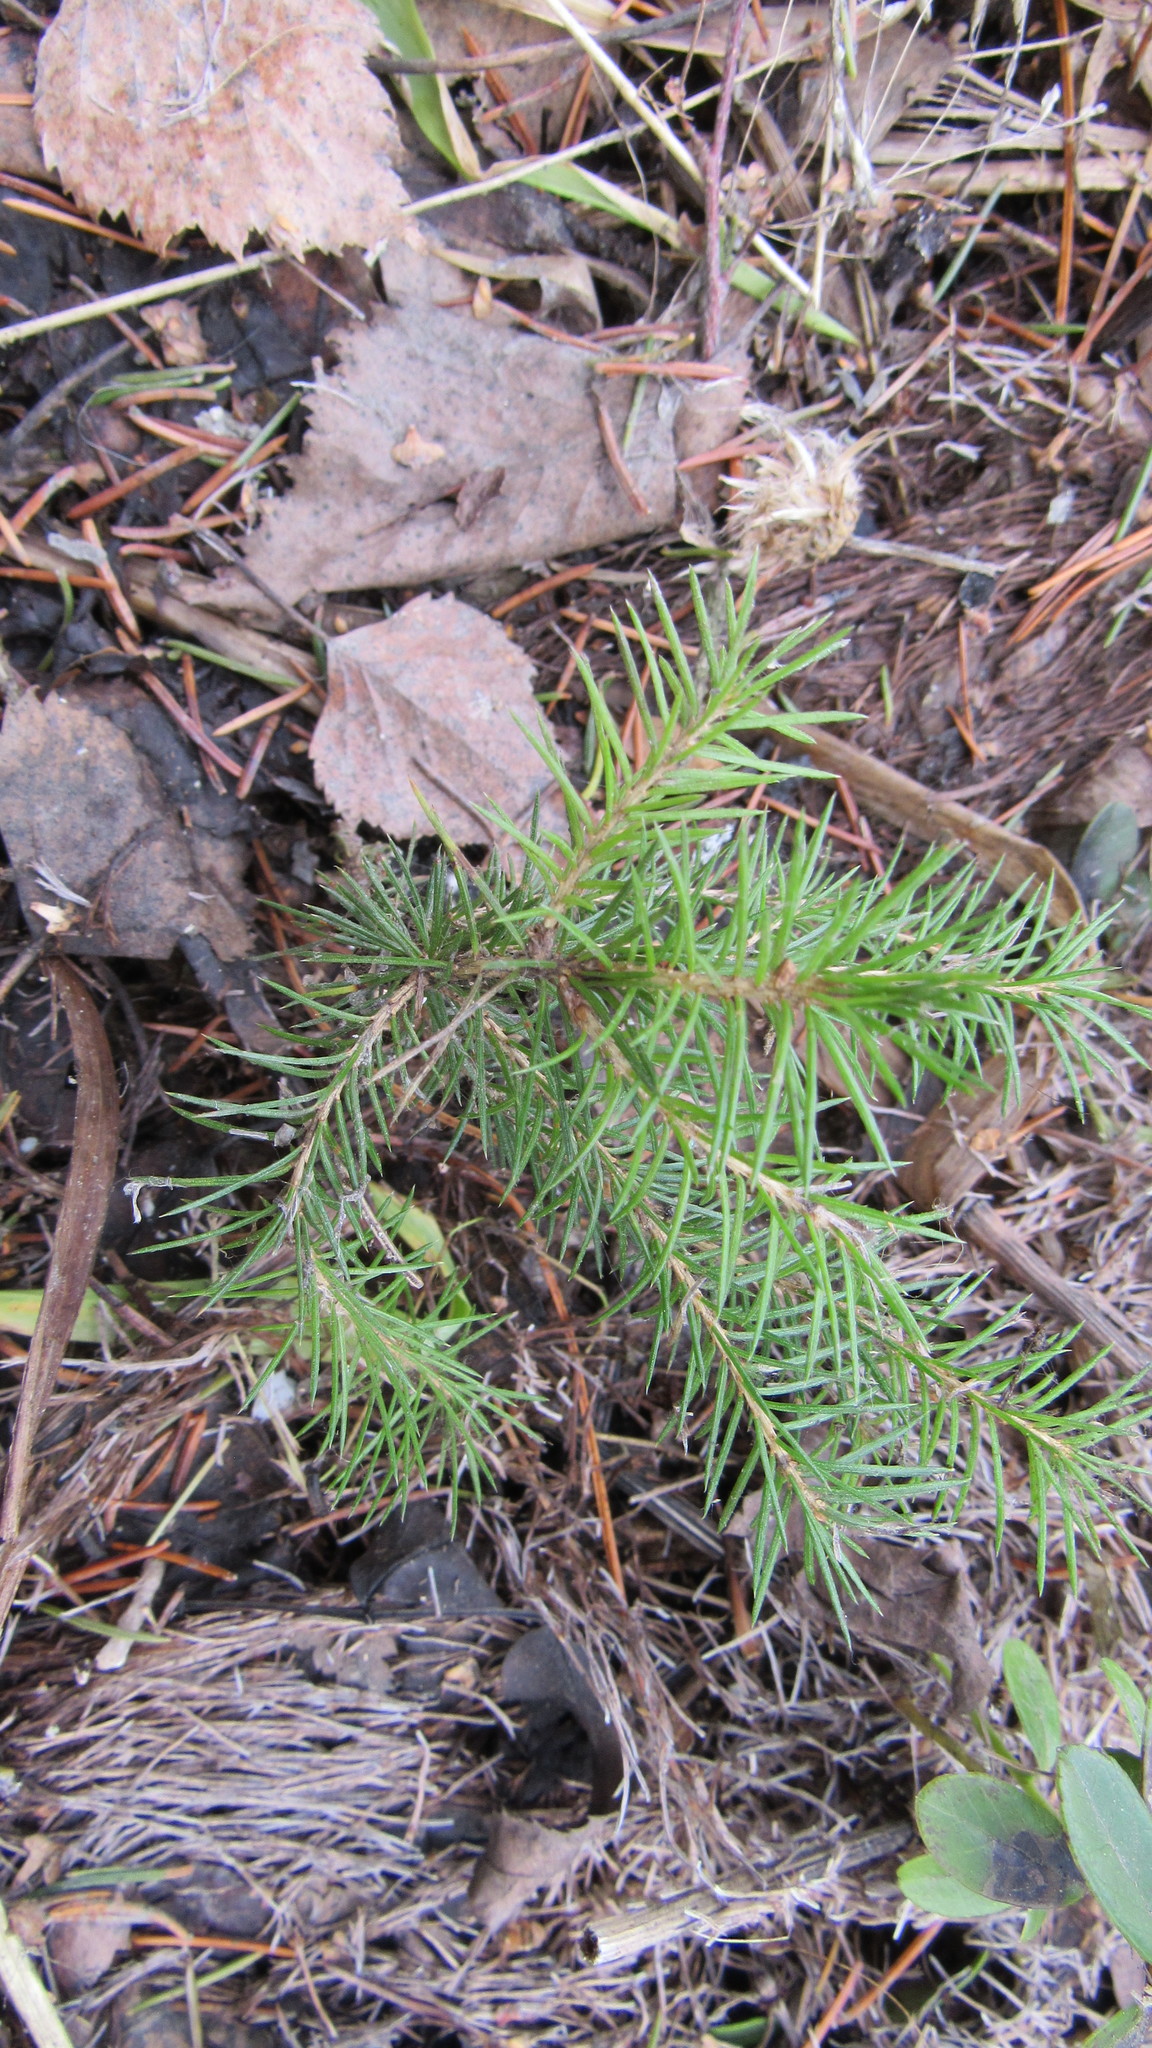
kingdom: Plantae
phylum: Tracheophyta
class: Pinopsida
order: Pinales
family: Pinaceae
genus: Picea
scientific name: Picea obovata
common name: Siberian spruce
